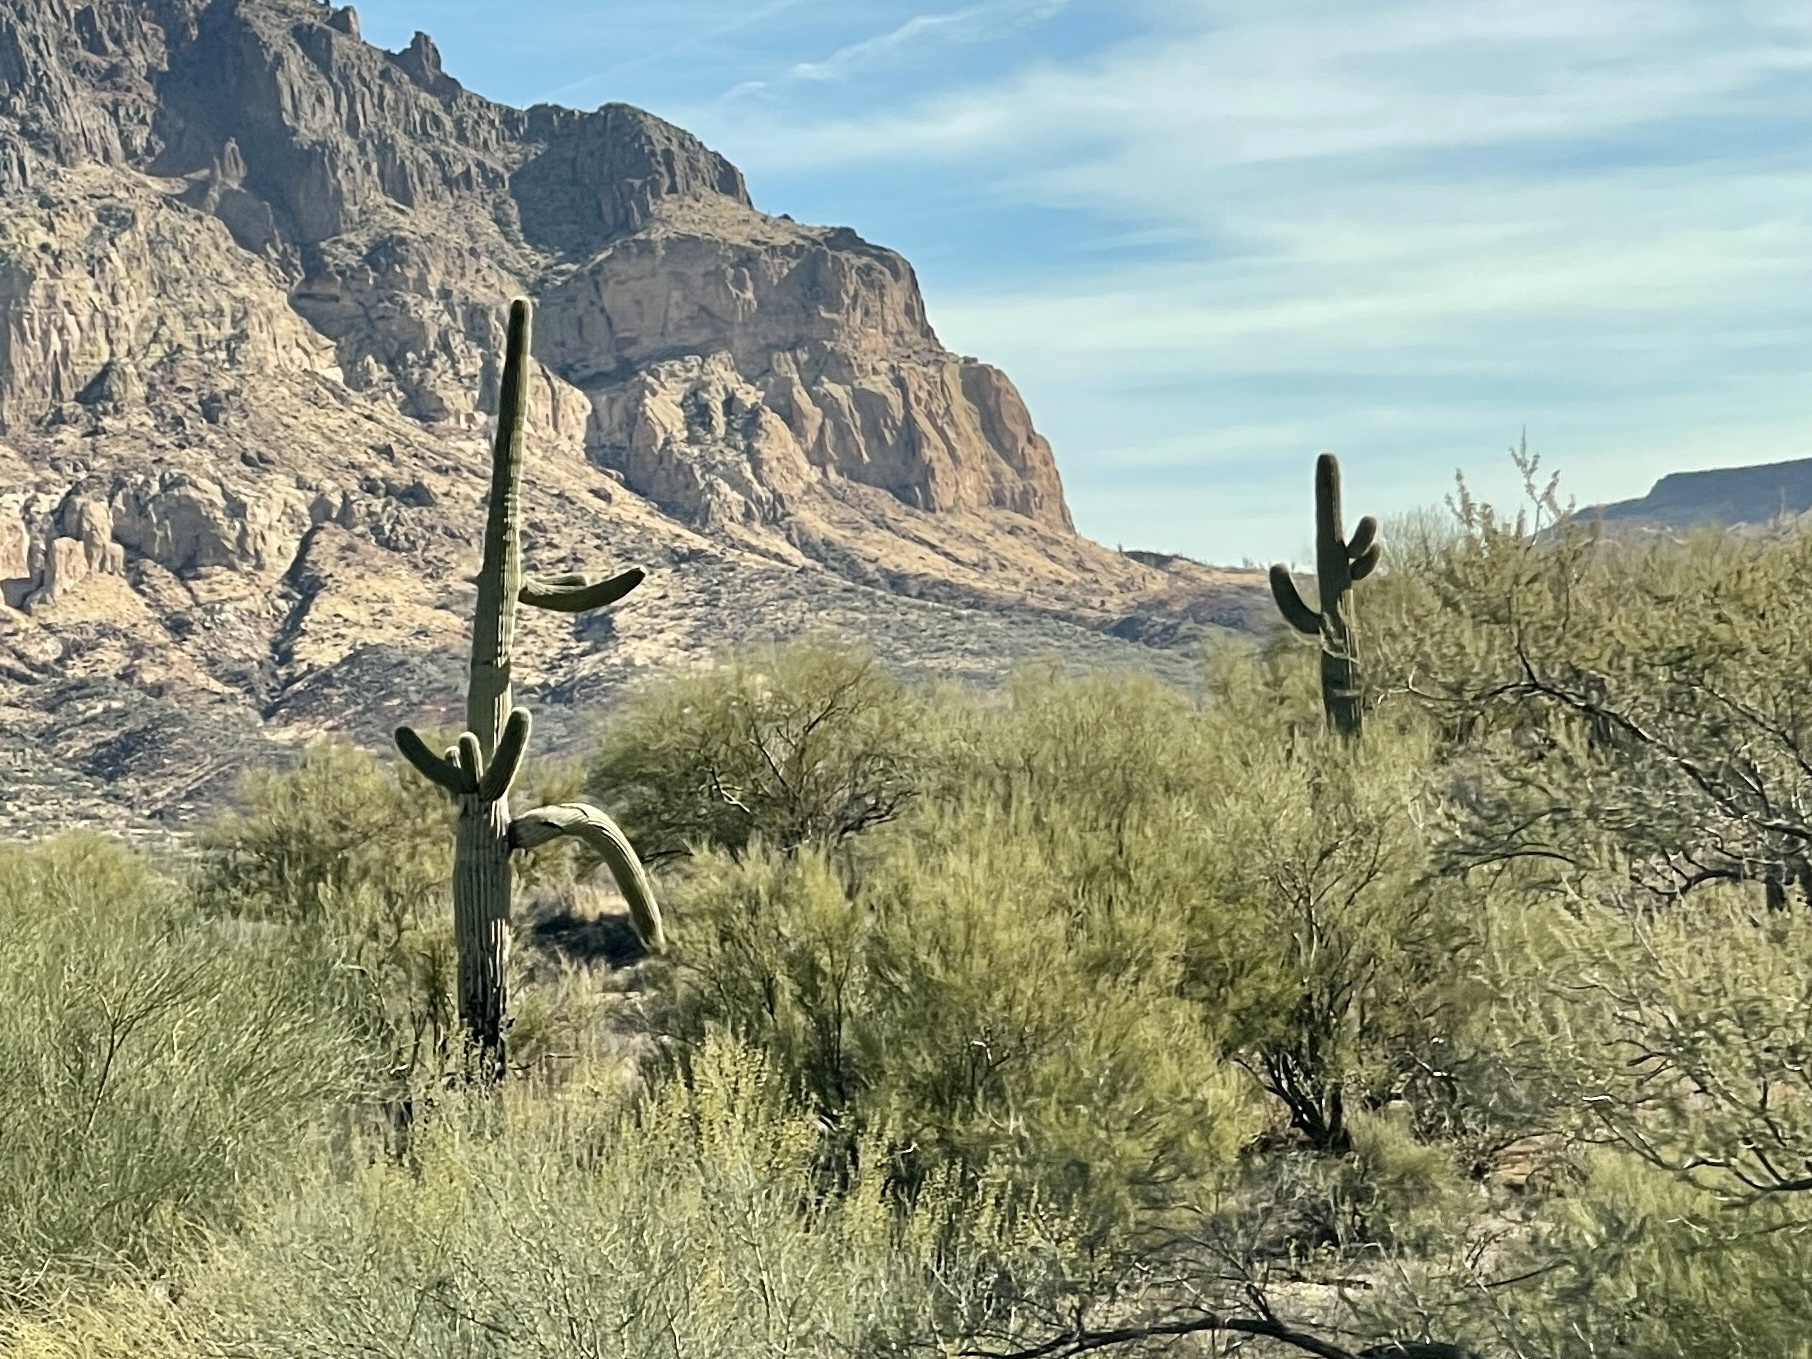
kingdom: Plantae
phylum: Tracheophyta
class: Magnoliopsida
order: Caryophyllales
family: Cactaceae
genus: Carnegiea
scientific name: Carnegiea gigantea
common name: Saguaro
